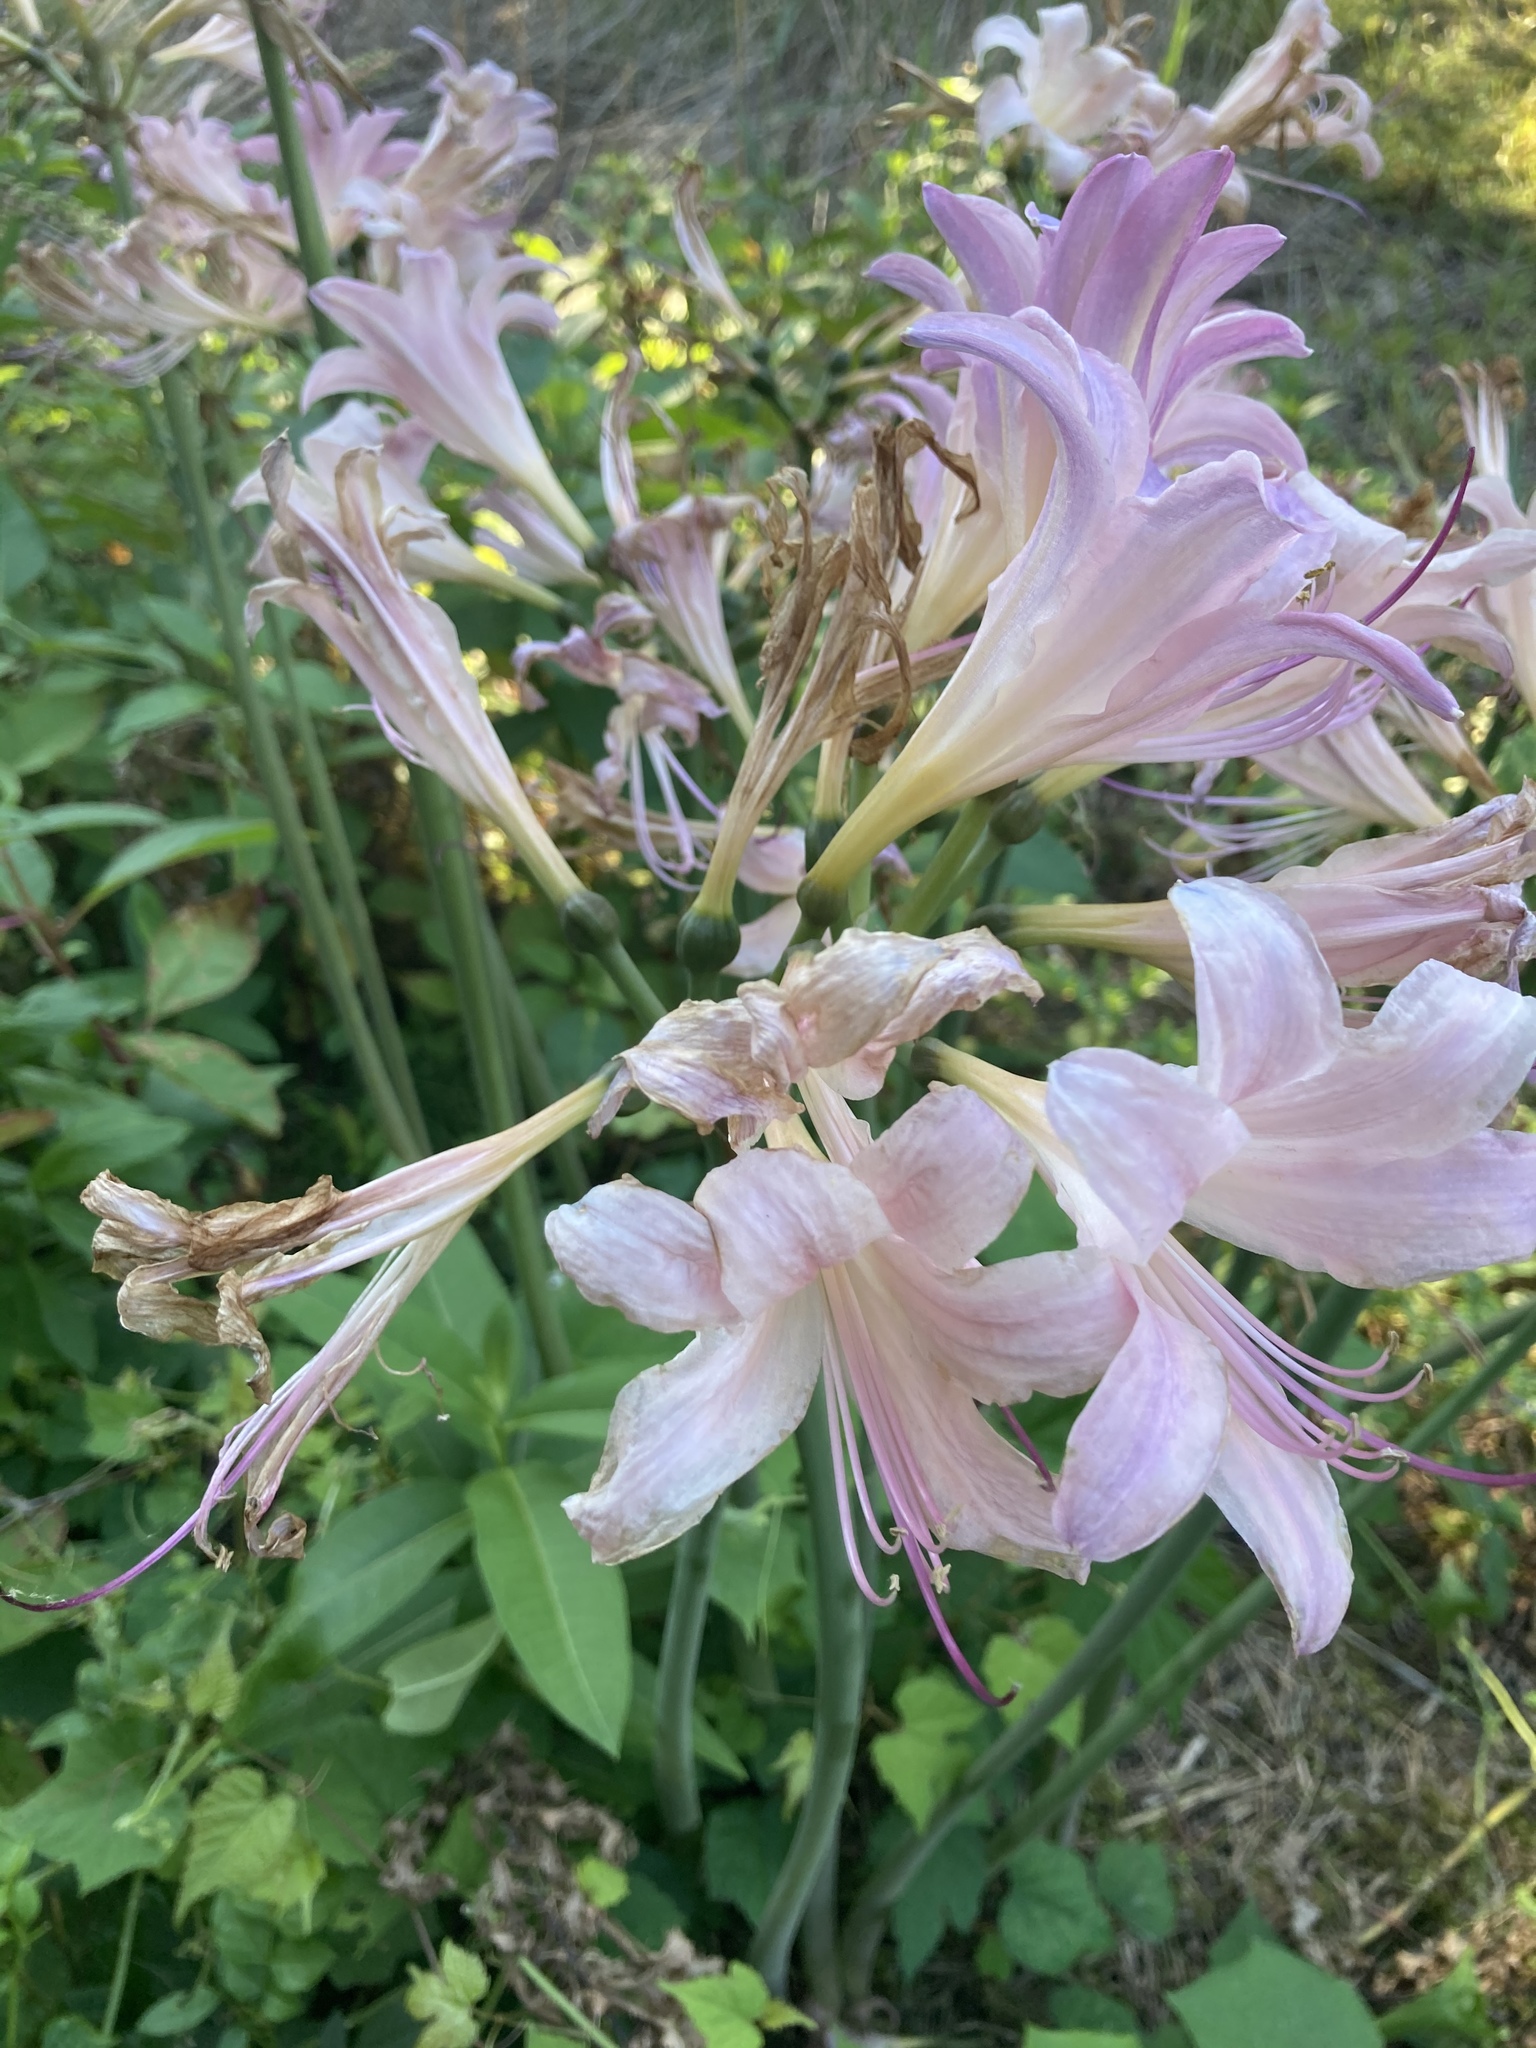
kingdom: Plantae
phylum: Tracheophyta
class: Liliopsida
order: Asparagales
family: Amaryllidaceae
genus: Lycoris
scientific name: Lycoris squamigera
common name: Magic-lily
